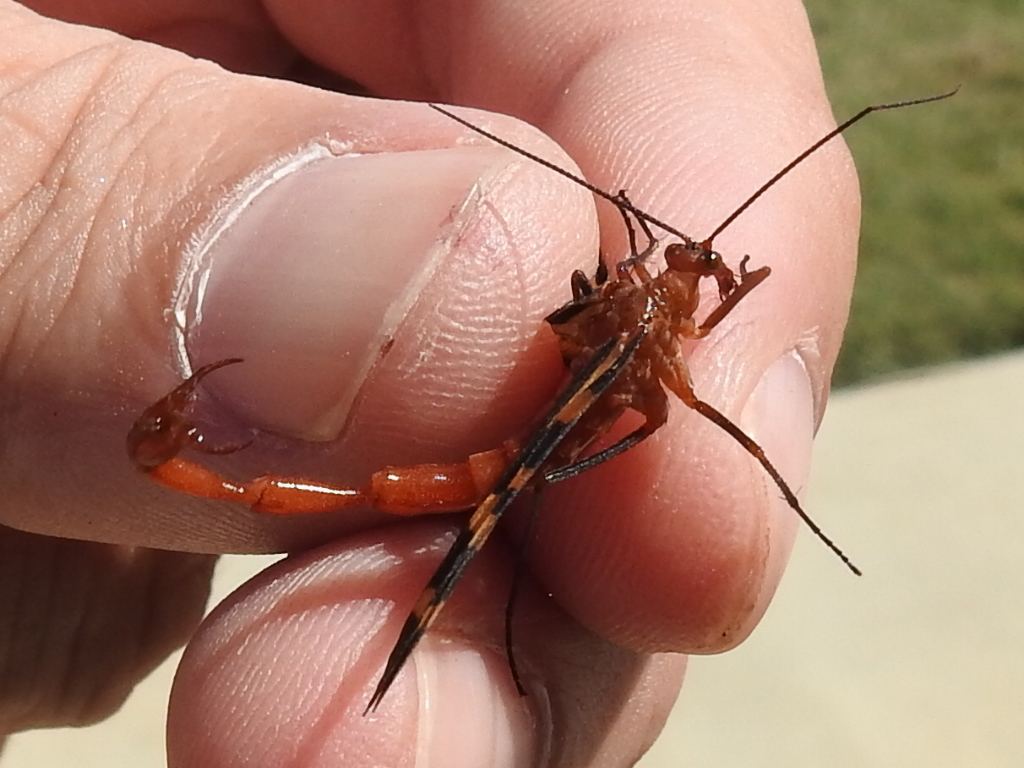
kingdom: Animalia
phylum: Arthropoda
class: Insecta
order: Mecoptera
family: Panorpidae
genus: Panorpa
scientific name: Panorpa nuptialis
